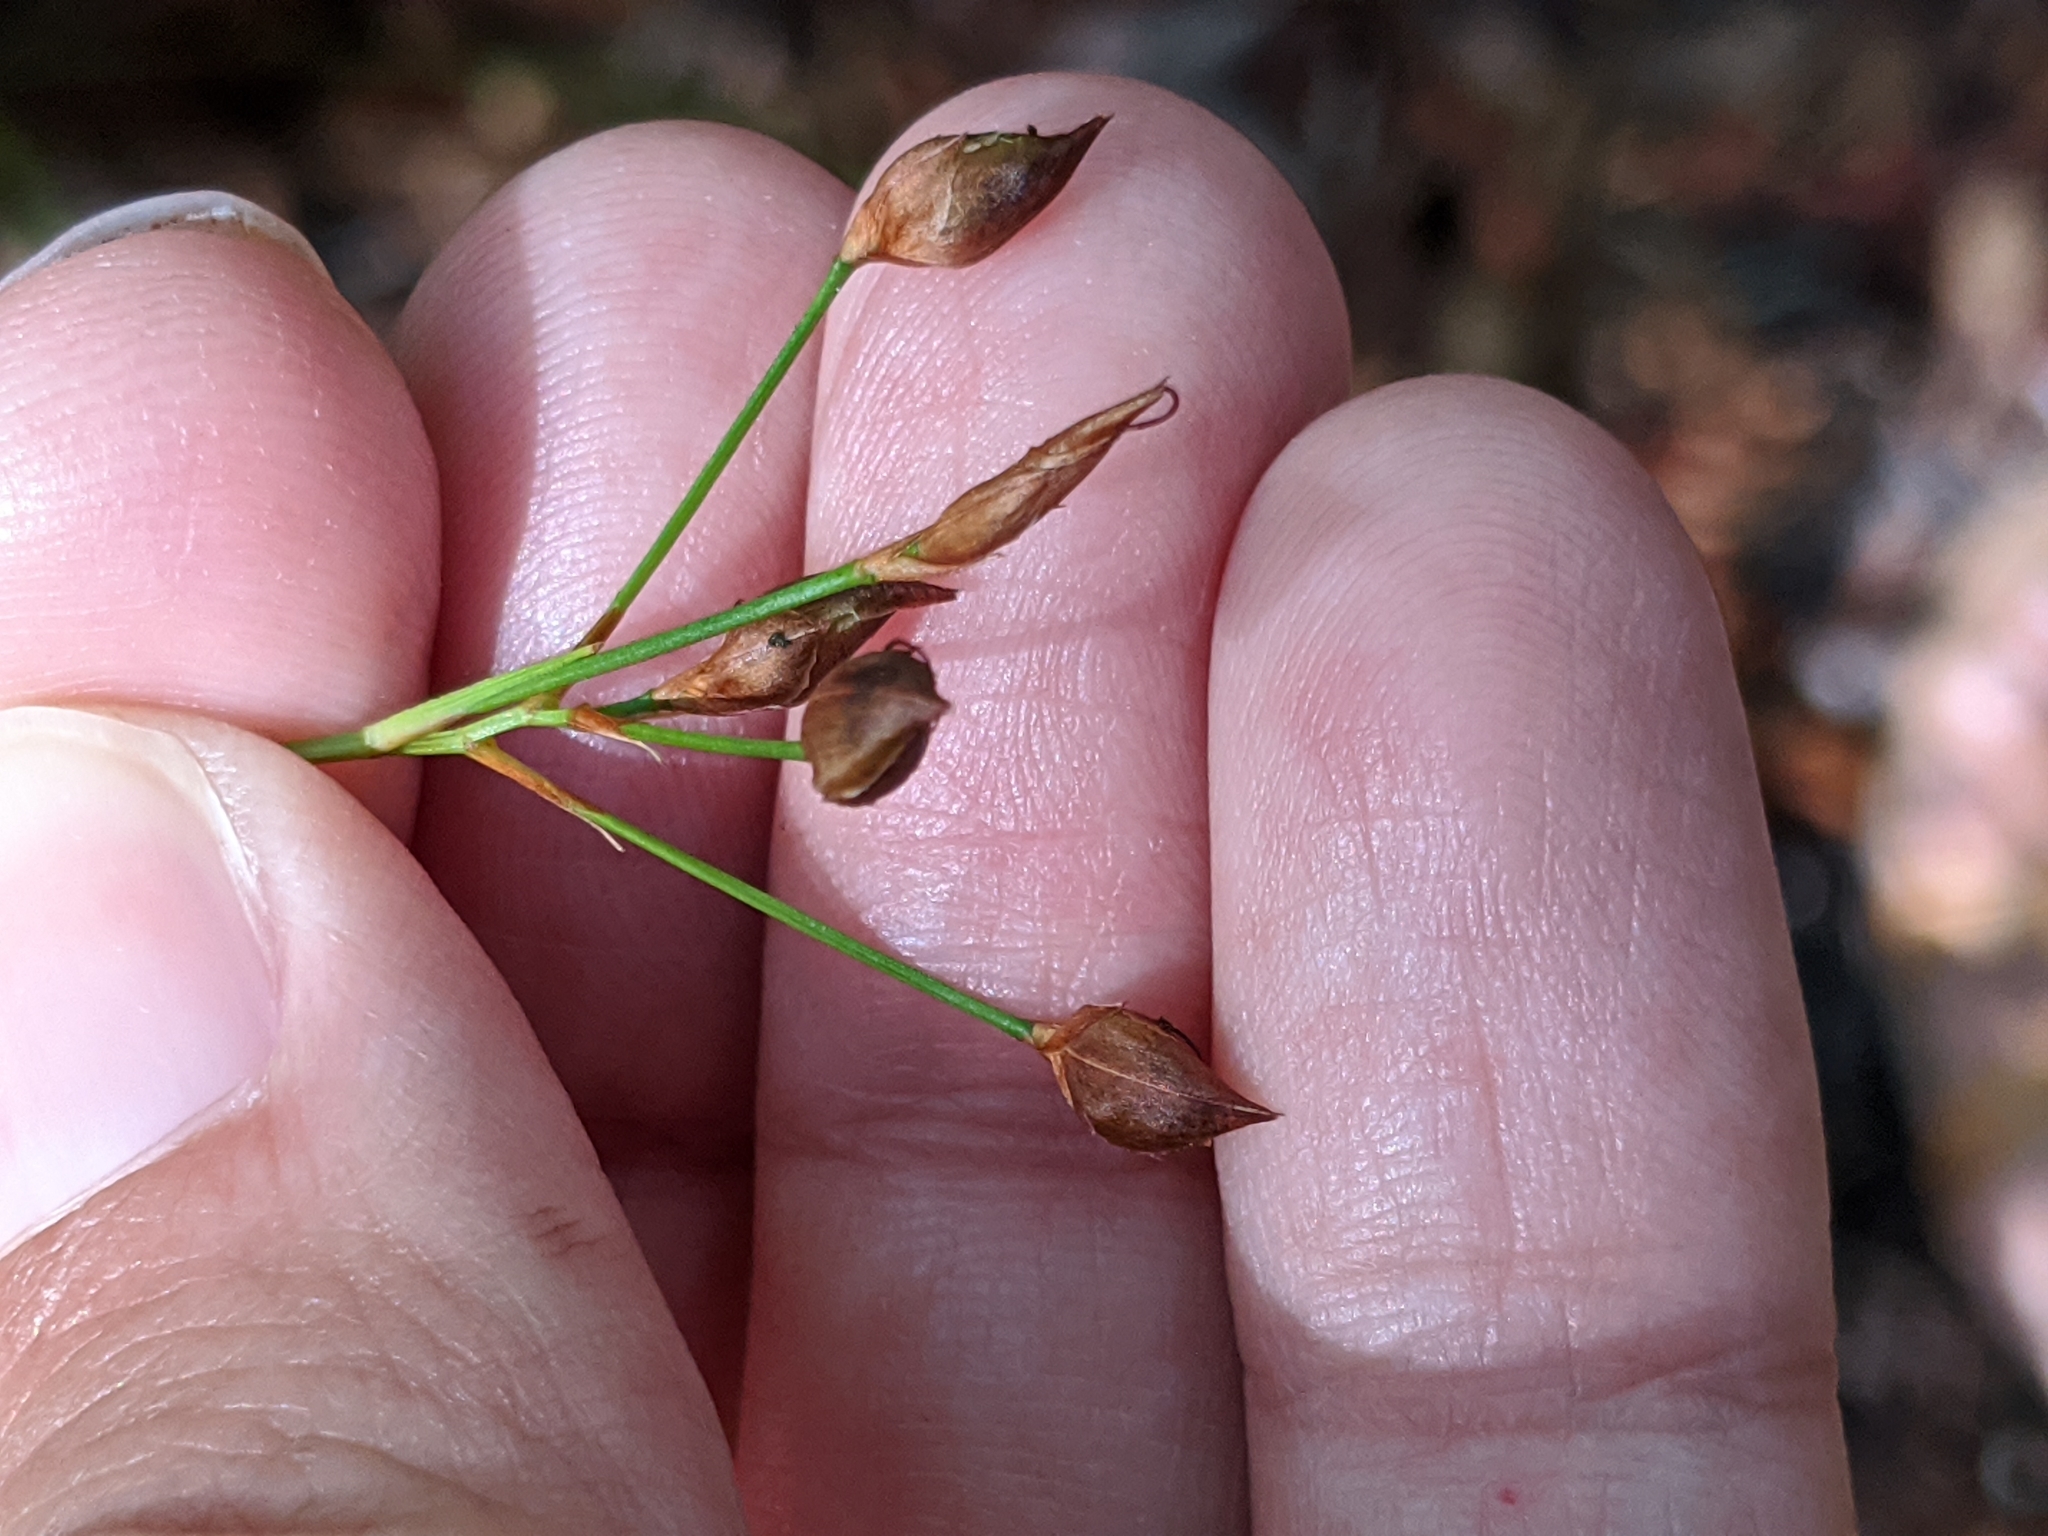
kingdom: Plantae
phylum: Tracheophyta
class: Liliopsida
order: Poales
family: Cyperaceae
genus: Rhynchospora
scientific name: Rhynchospora megalocarpa
